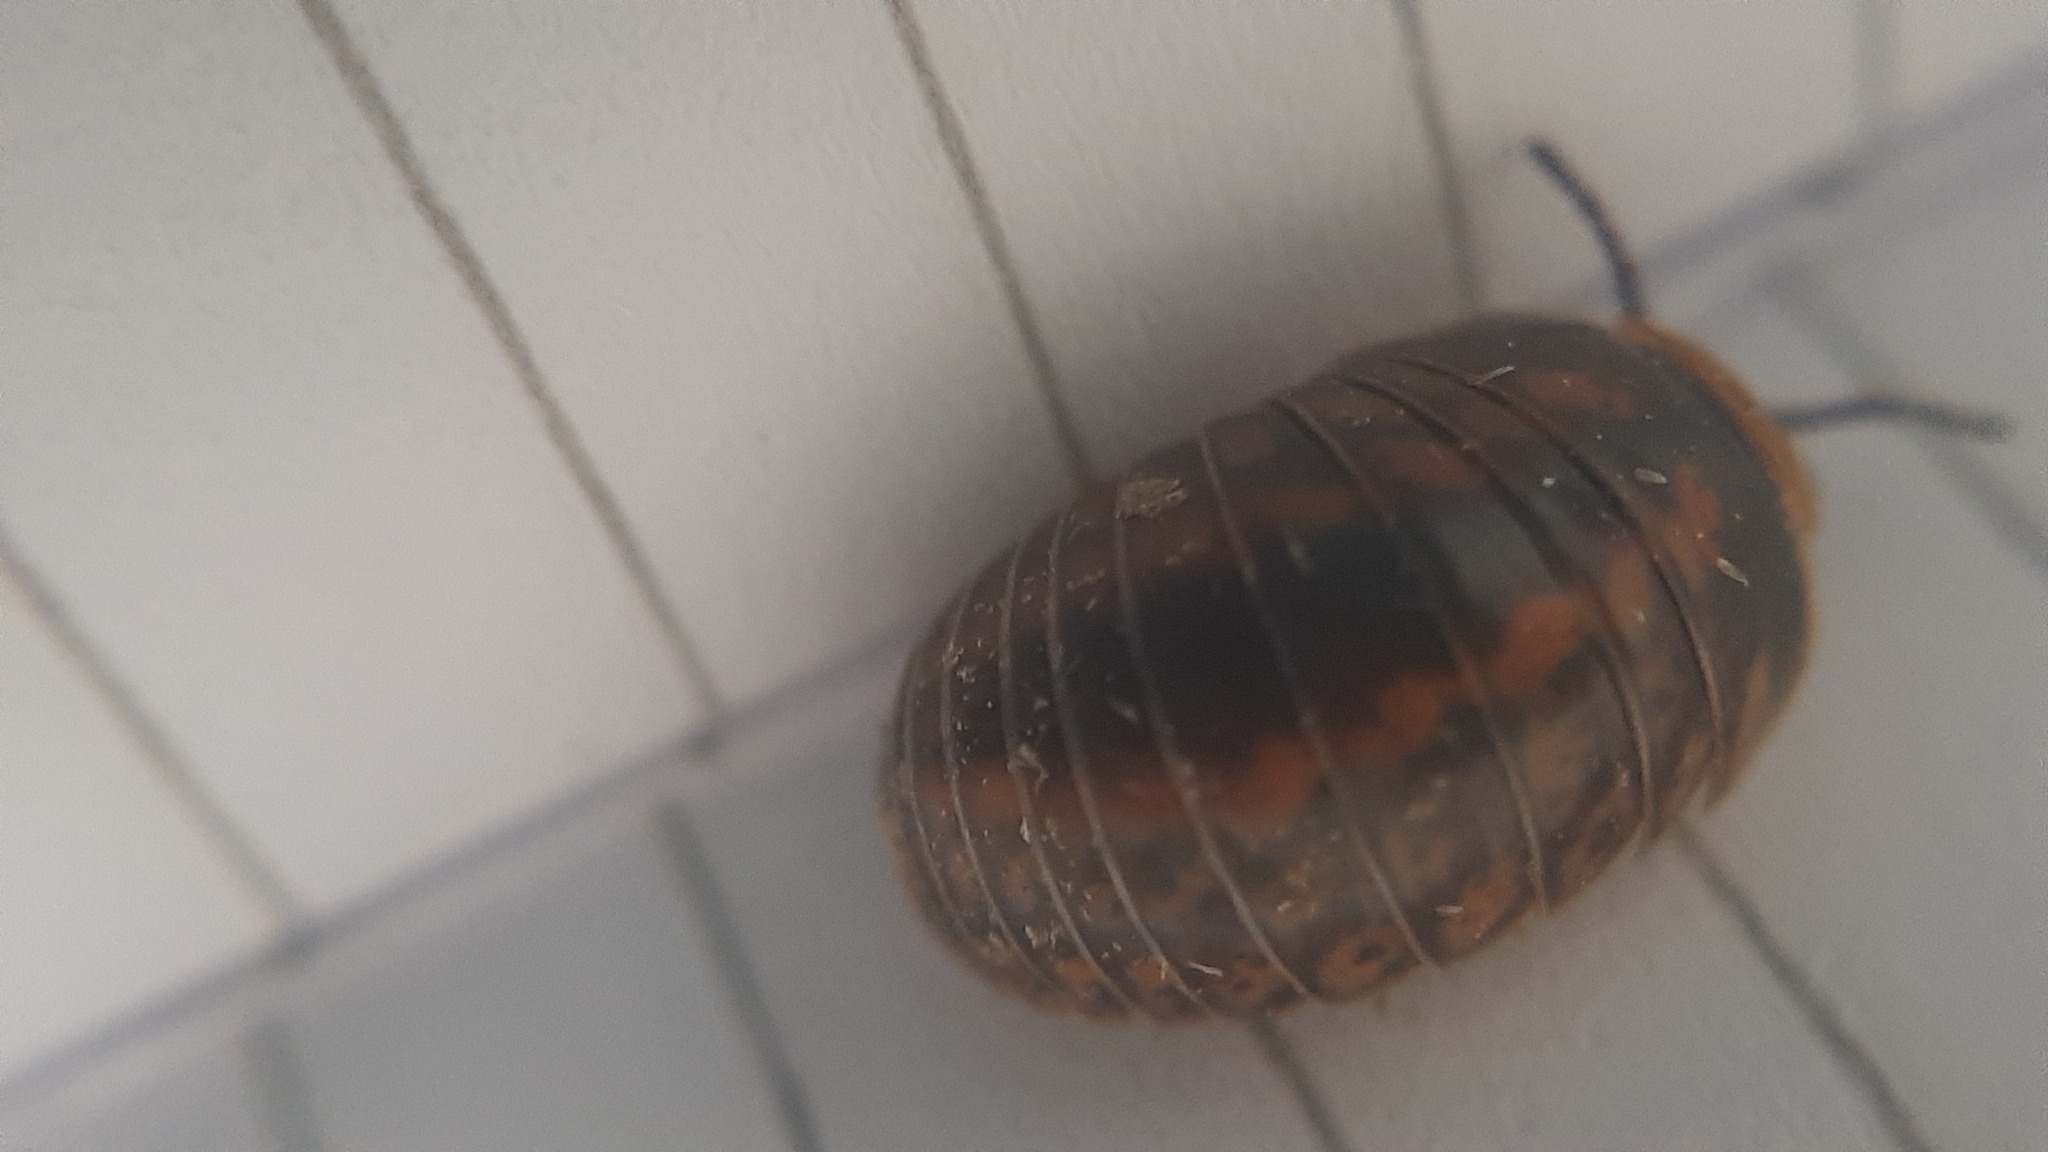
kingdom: Animalia
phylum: Arthropoda
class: Diplopoda
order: Glomerida
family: Glomeridae
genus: Glomeris
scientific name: Glomeris klugii
